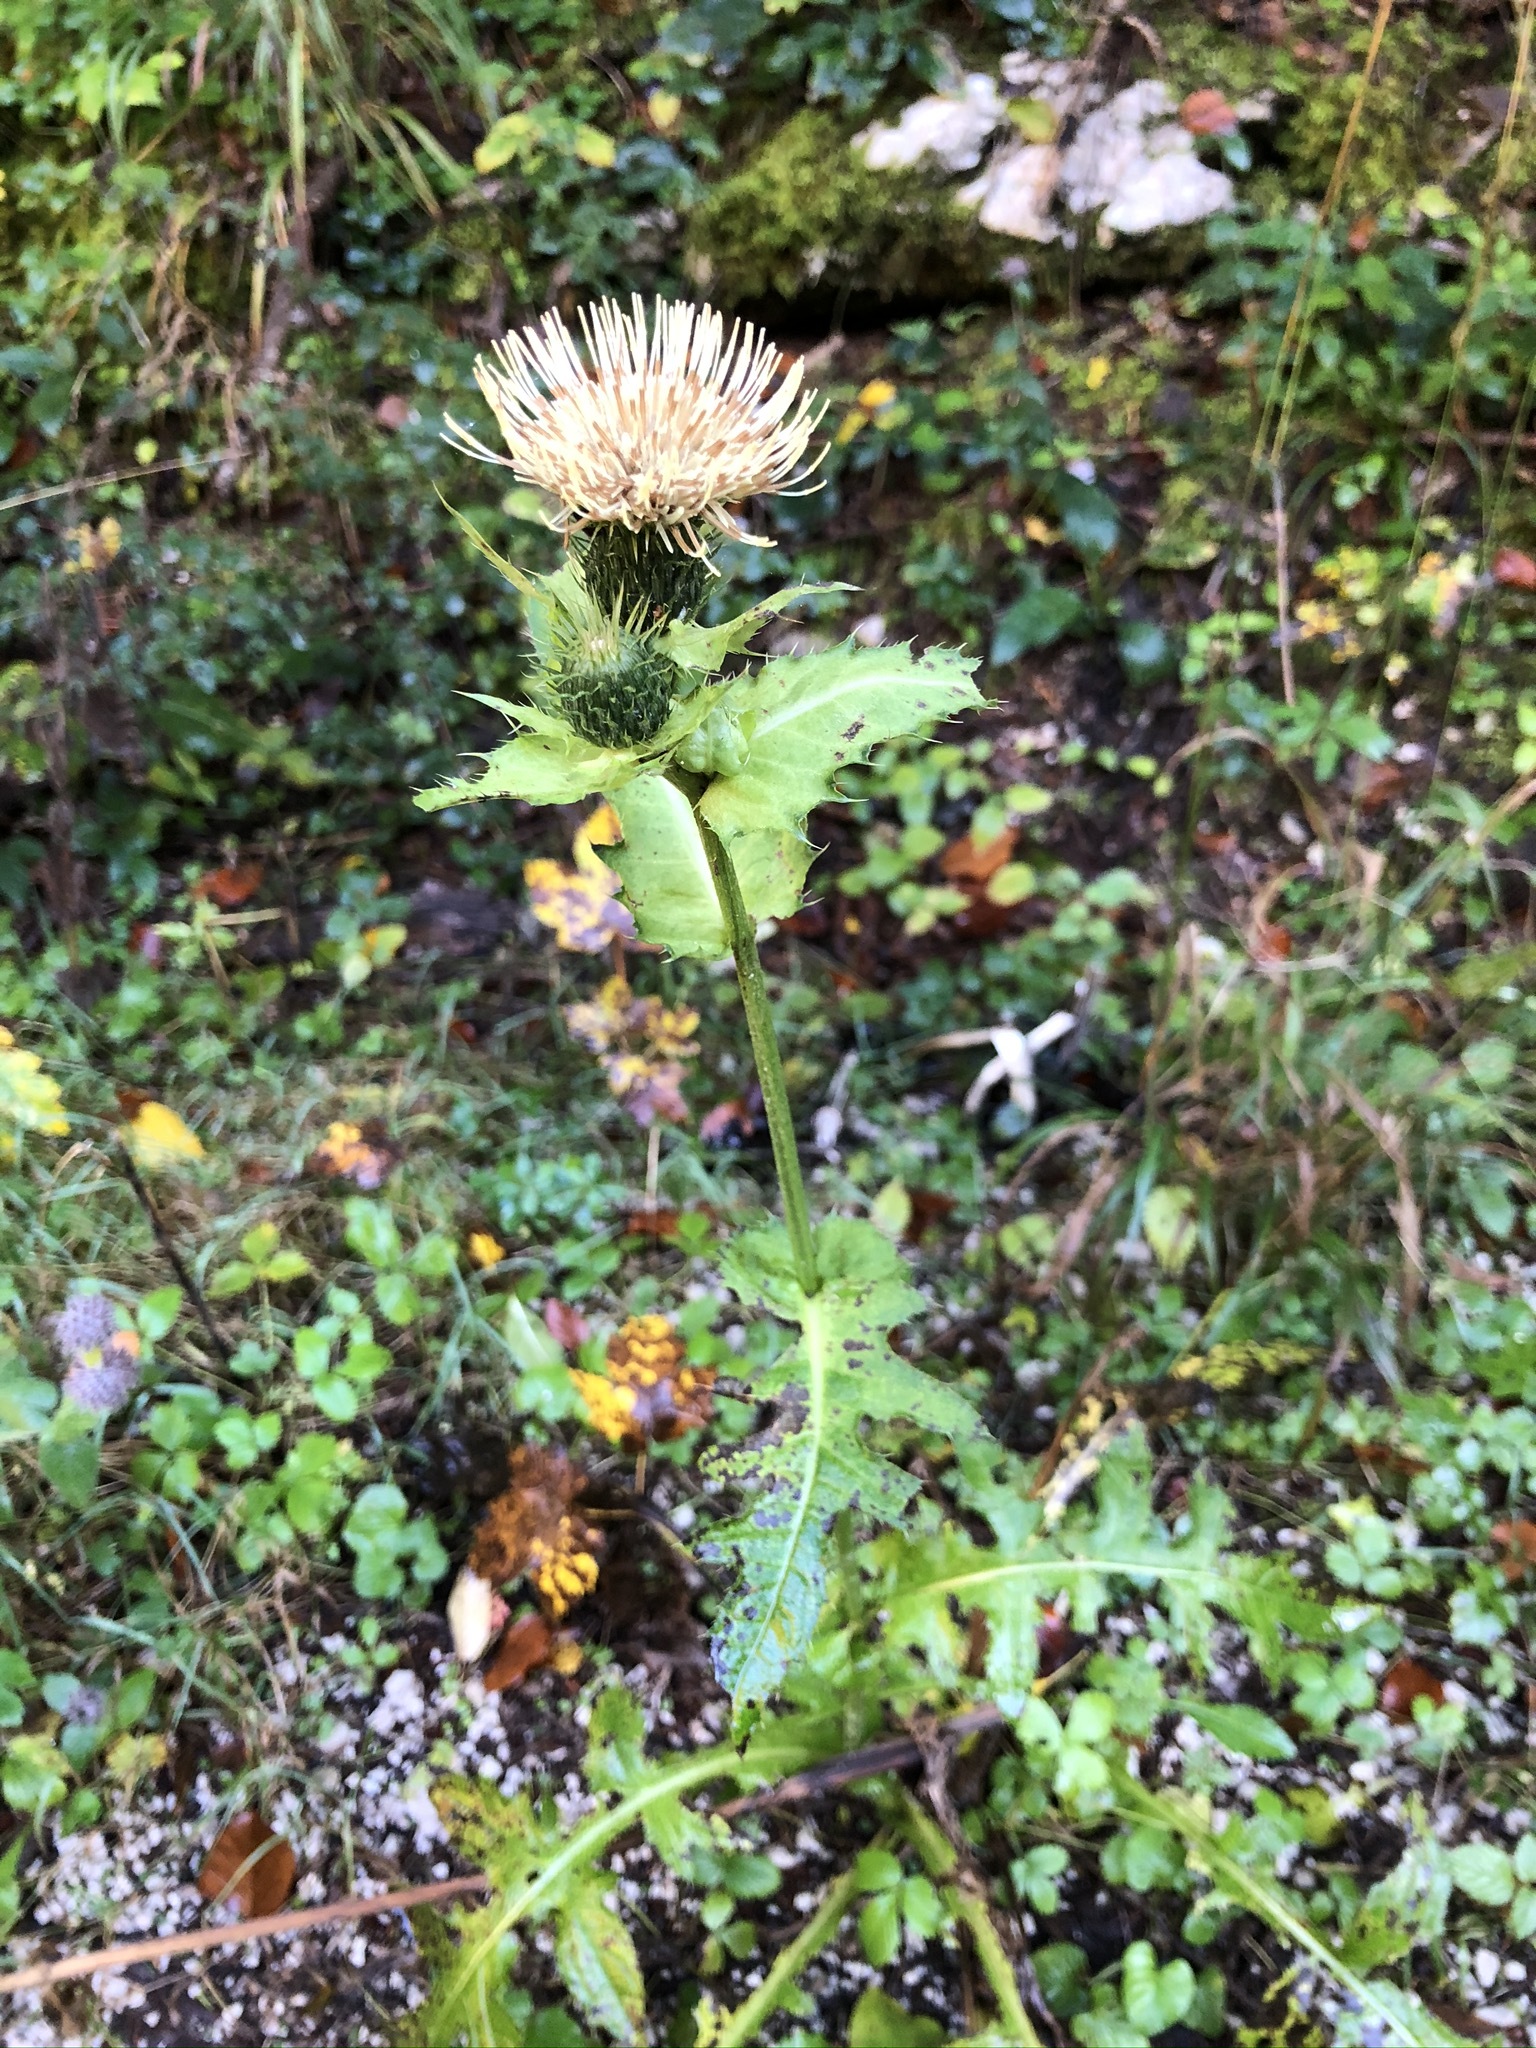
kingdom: Plantae
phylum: Tracheophyta
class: Magnoliopsida
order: Asterales
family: Asteraceae
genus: Cirsium
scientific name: Cirsium oleraceum
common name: Cabbage thistle
